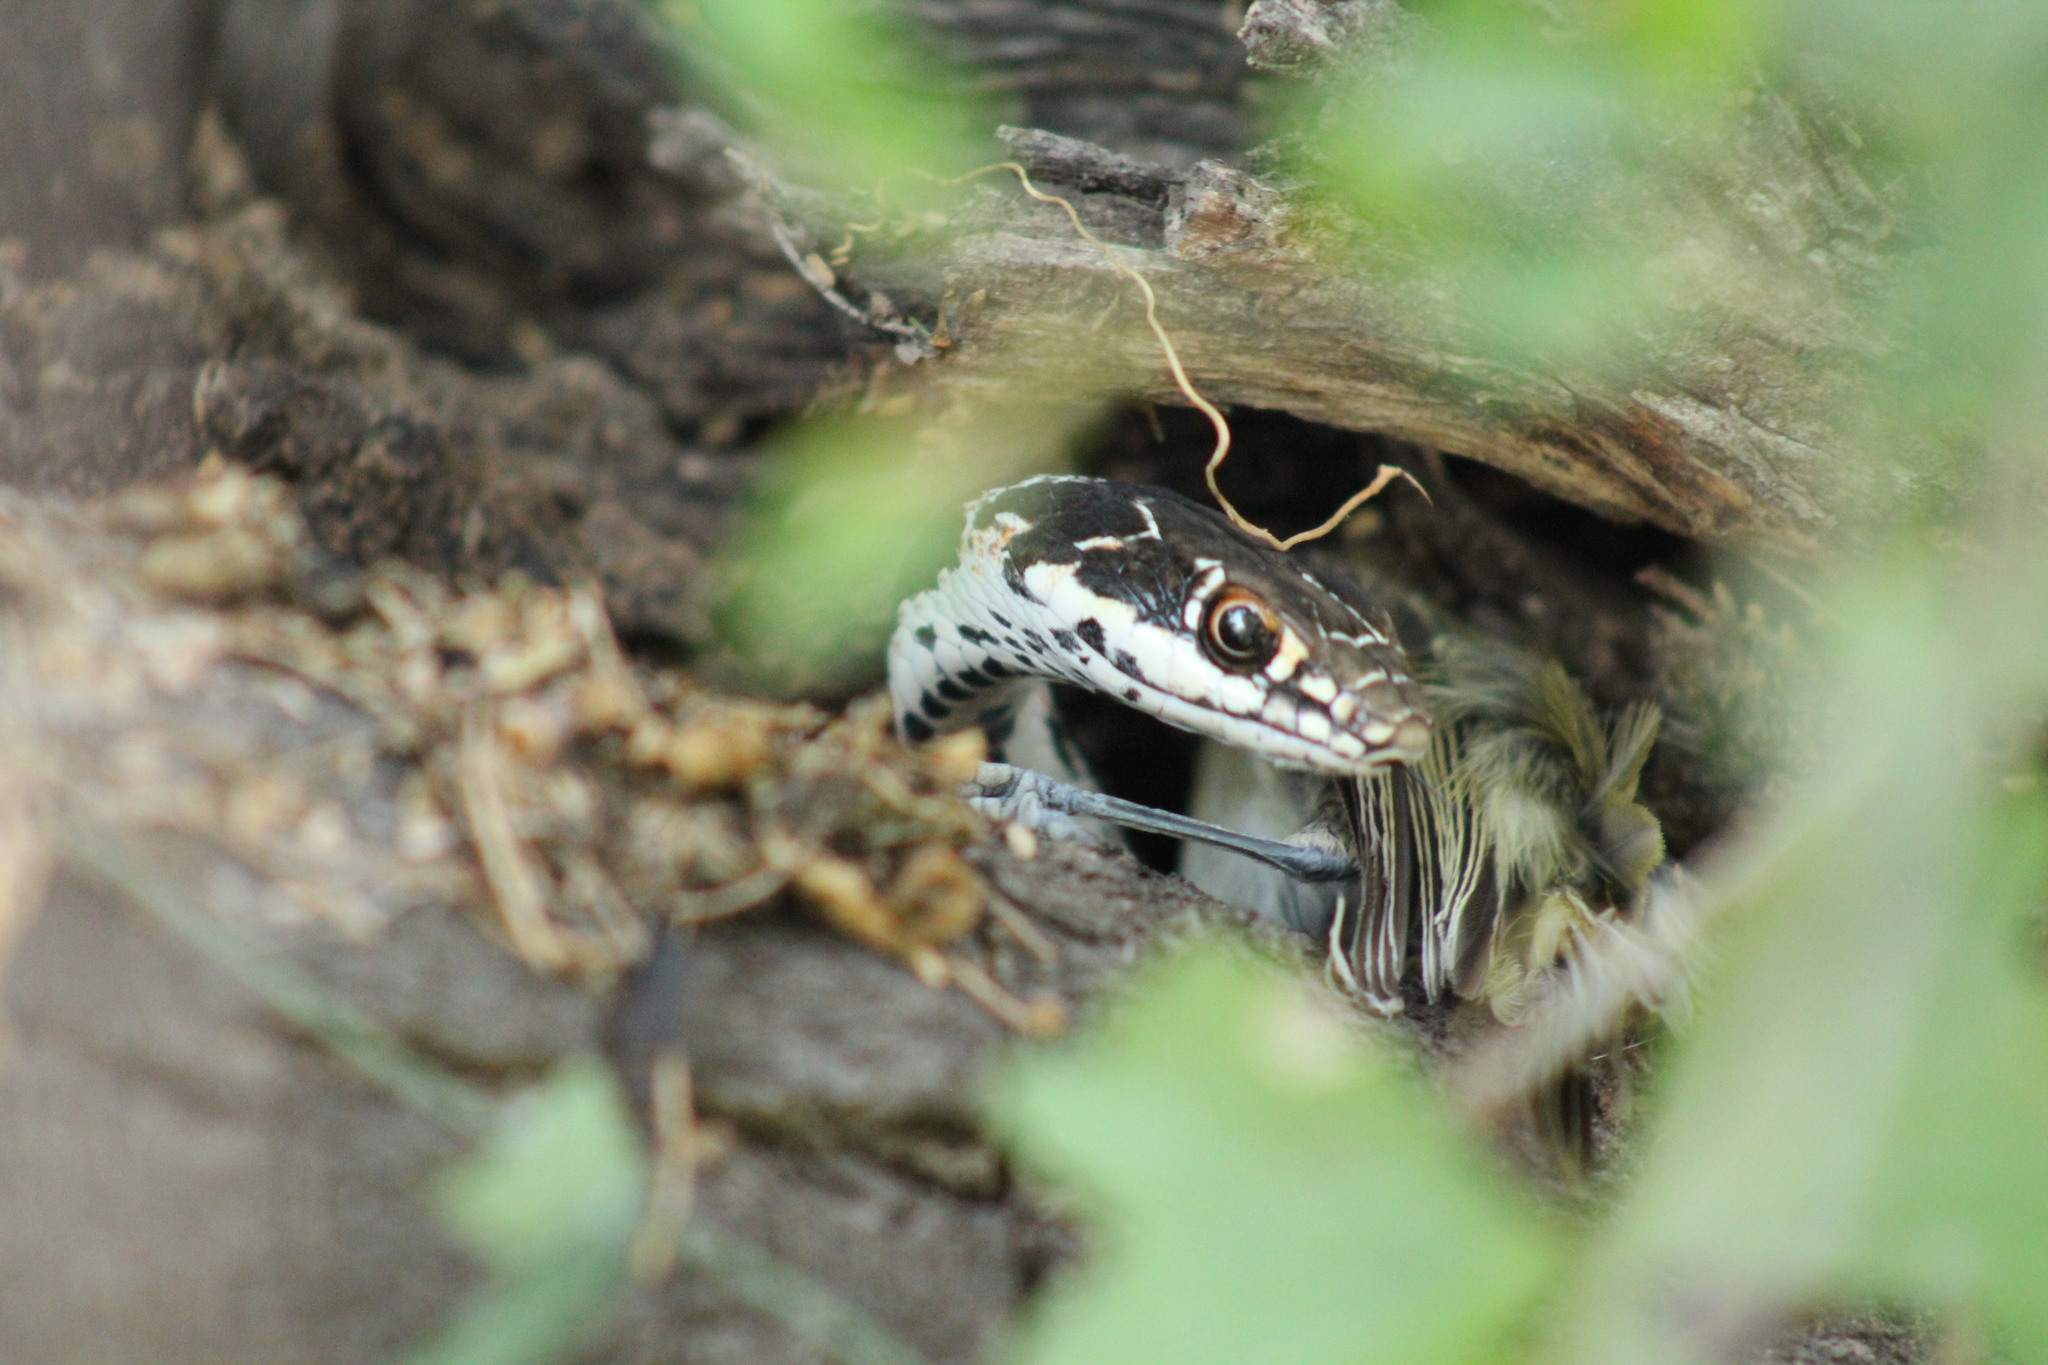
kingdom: Animalia
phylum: Chordata
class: Squamata
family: Colubridae
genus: Masticophis
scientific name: Masticophis taeniatus
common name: Striped whipsnake
